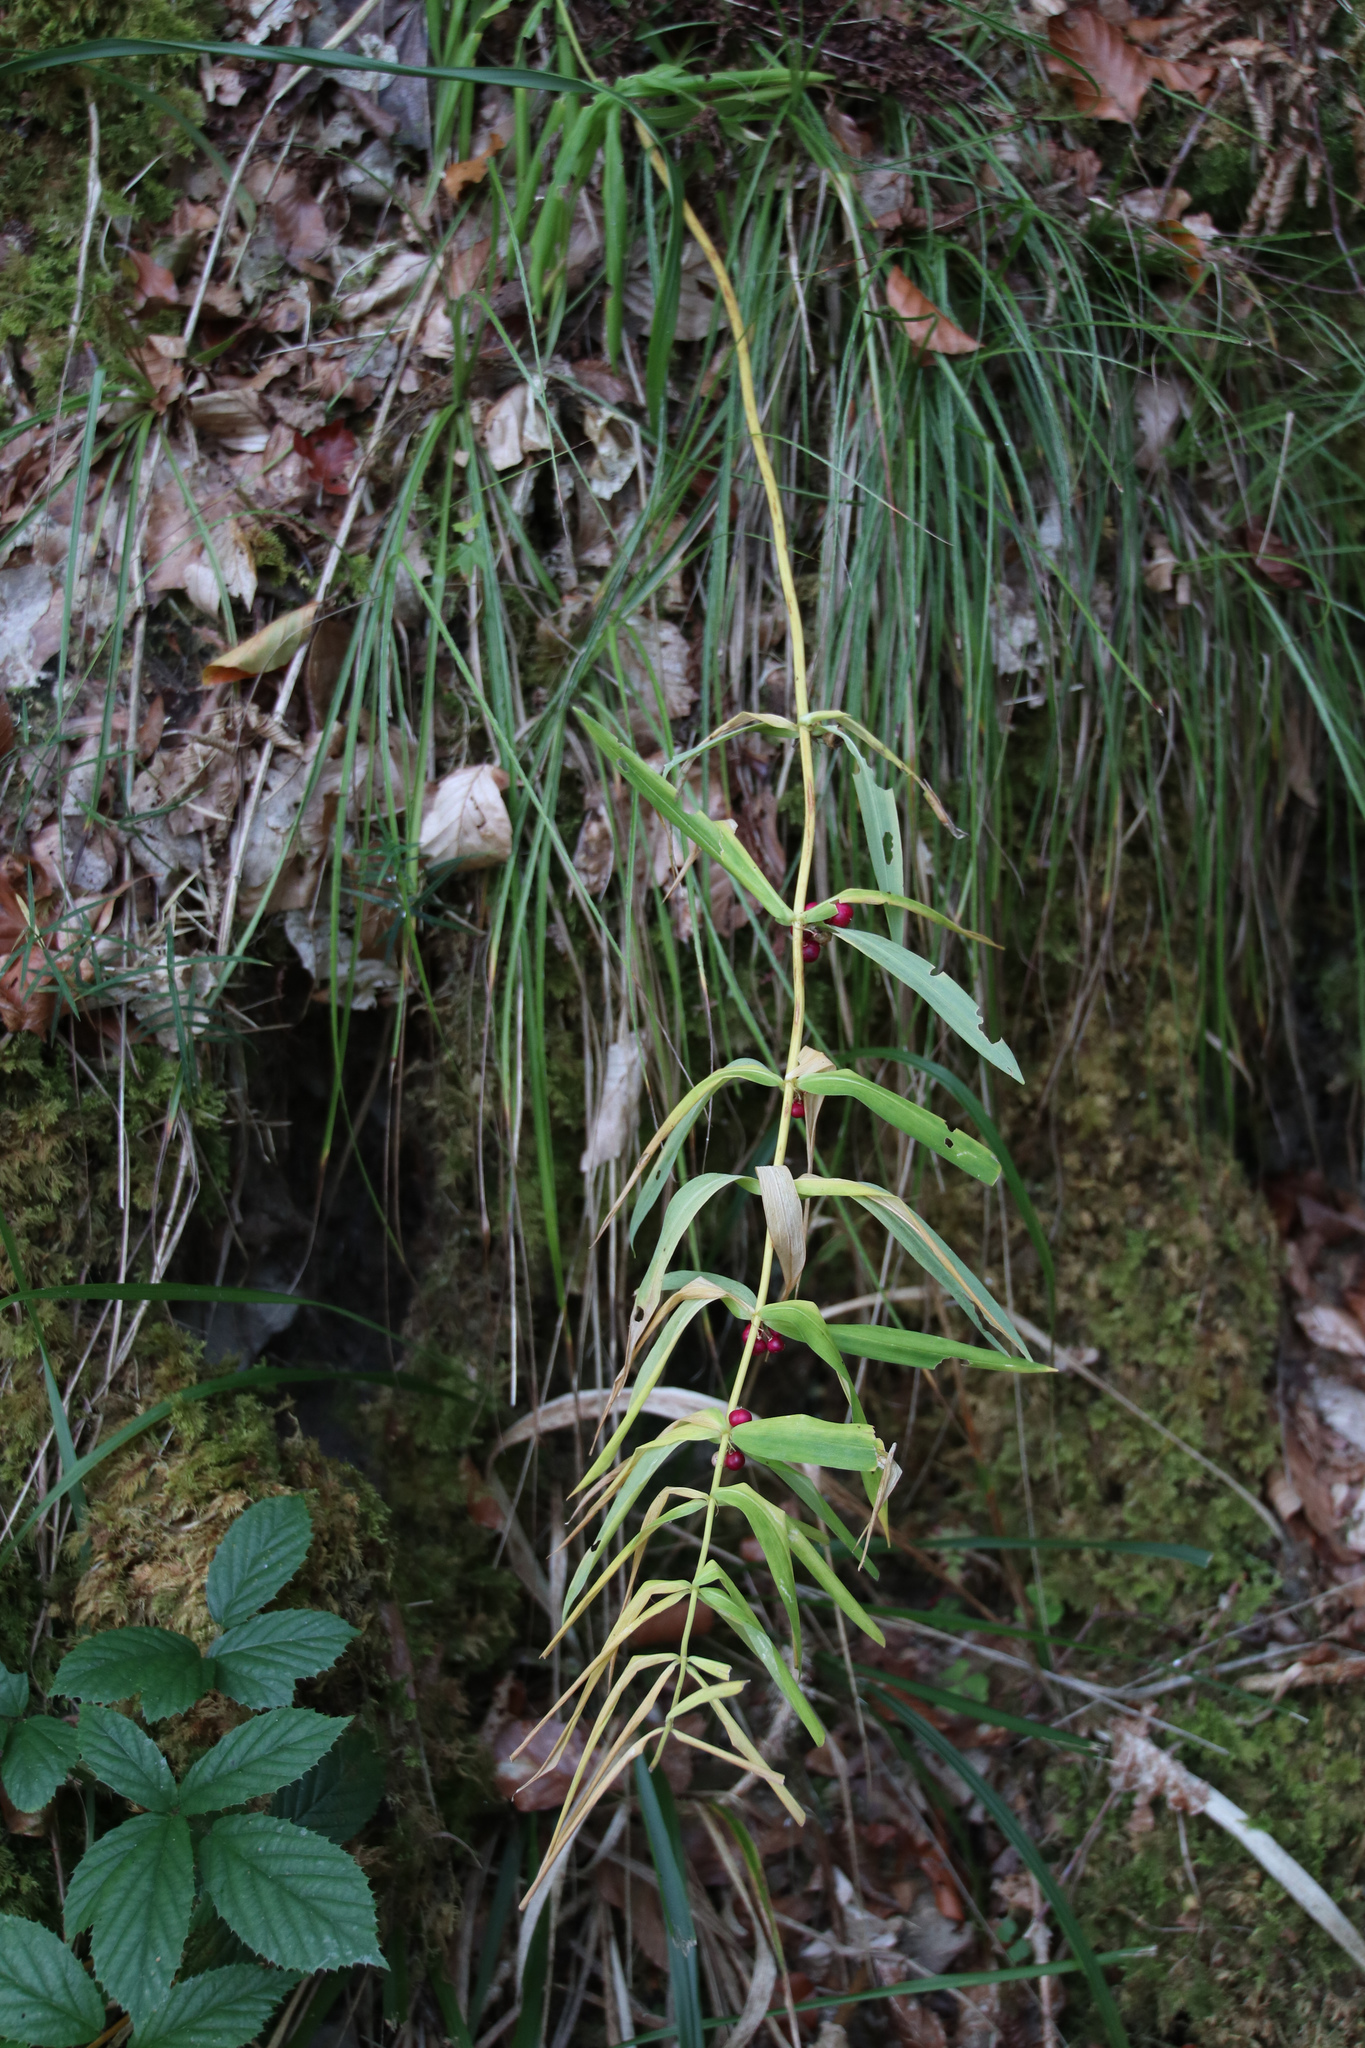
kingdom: Plantae
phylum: Tracheophyta
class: Liliopsida
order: Asparagales
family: Asparagaceae
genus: Polygonatum
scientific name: Polygonatum verticillatum
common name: Whorled solomon's-seal
